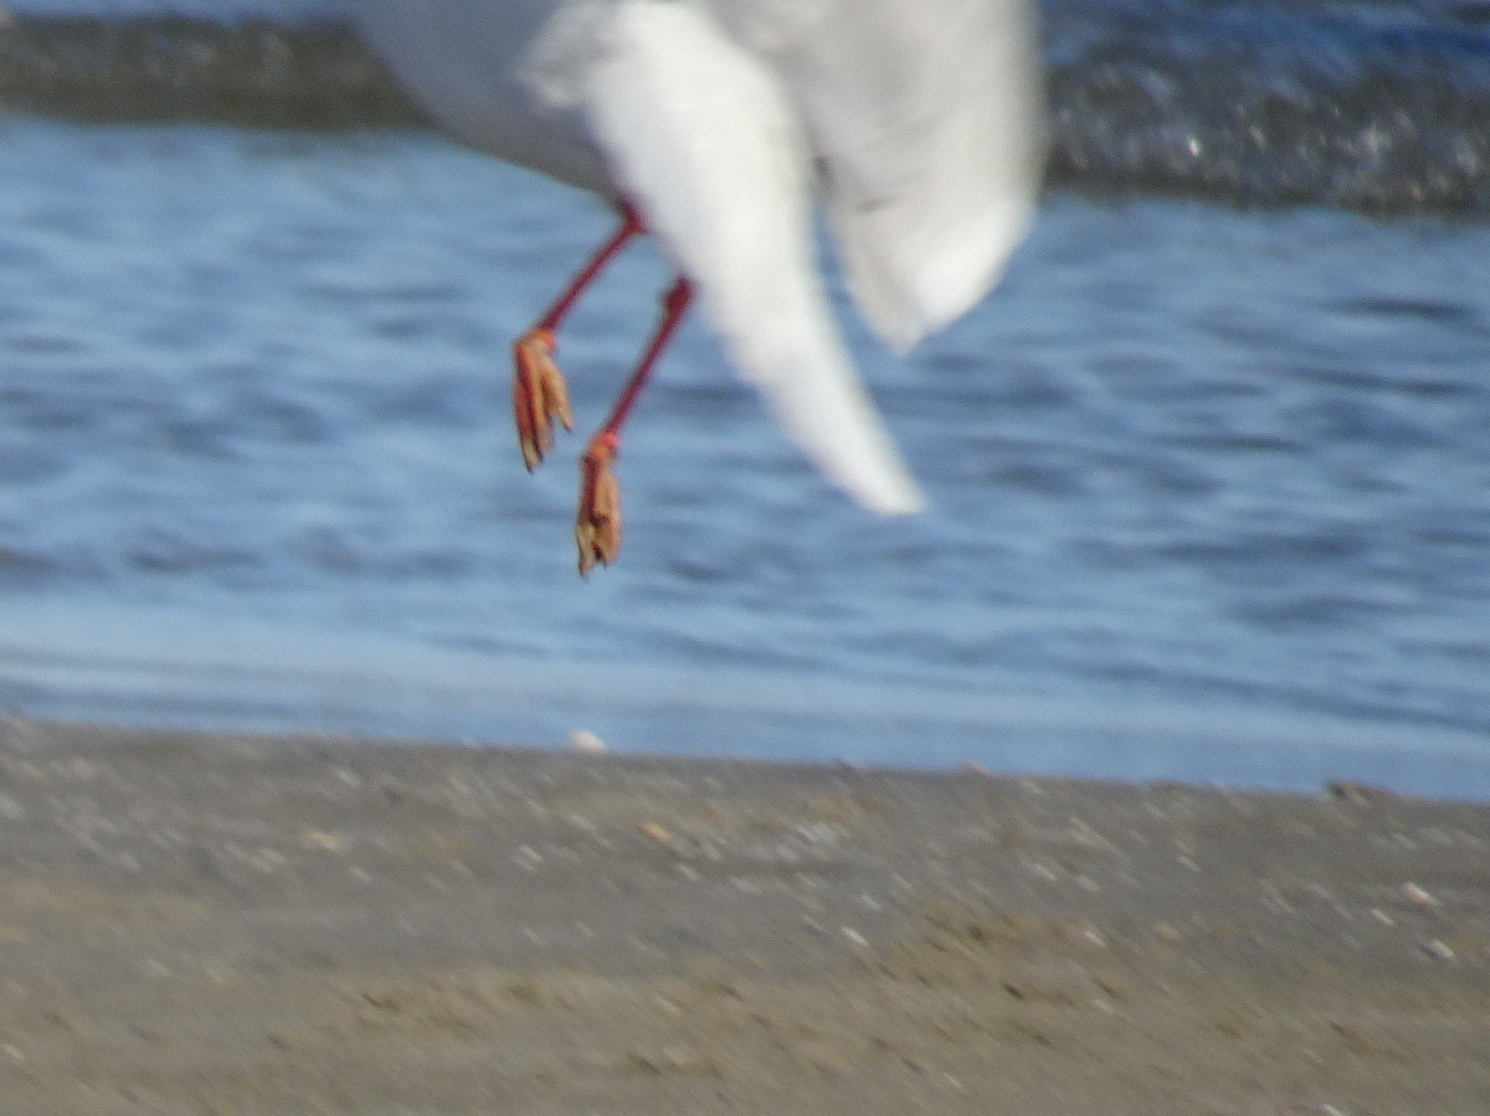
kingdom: Animalia
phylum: Chordata
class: Aves
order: Charadriiformes
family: Laridae
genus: Ichthyaetus
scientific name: Ichthyaetus melanocephalus
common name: Mediterranean gull
